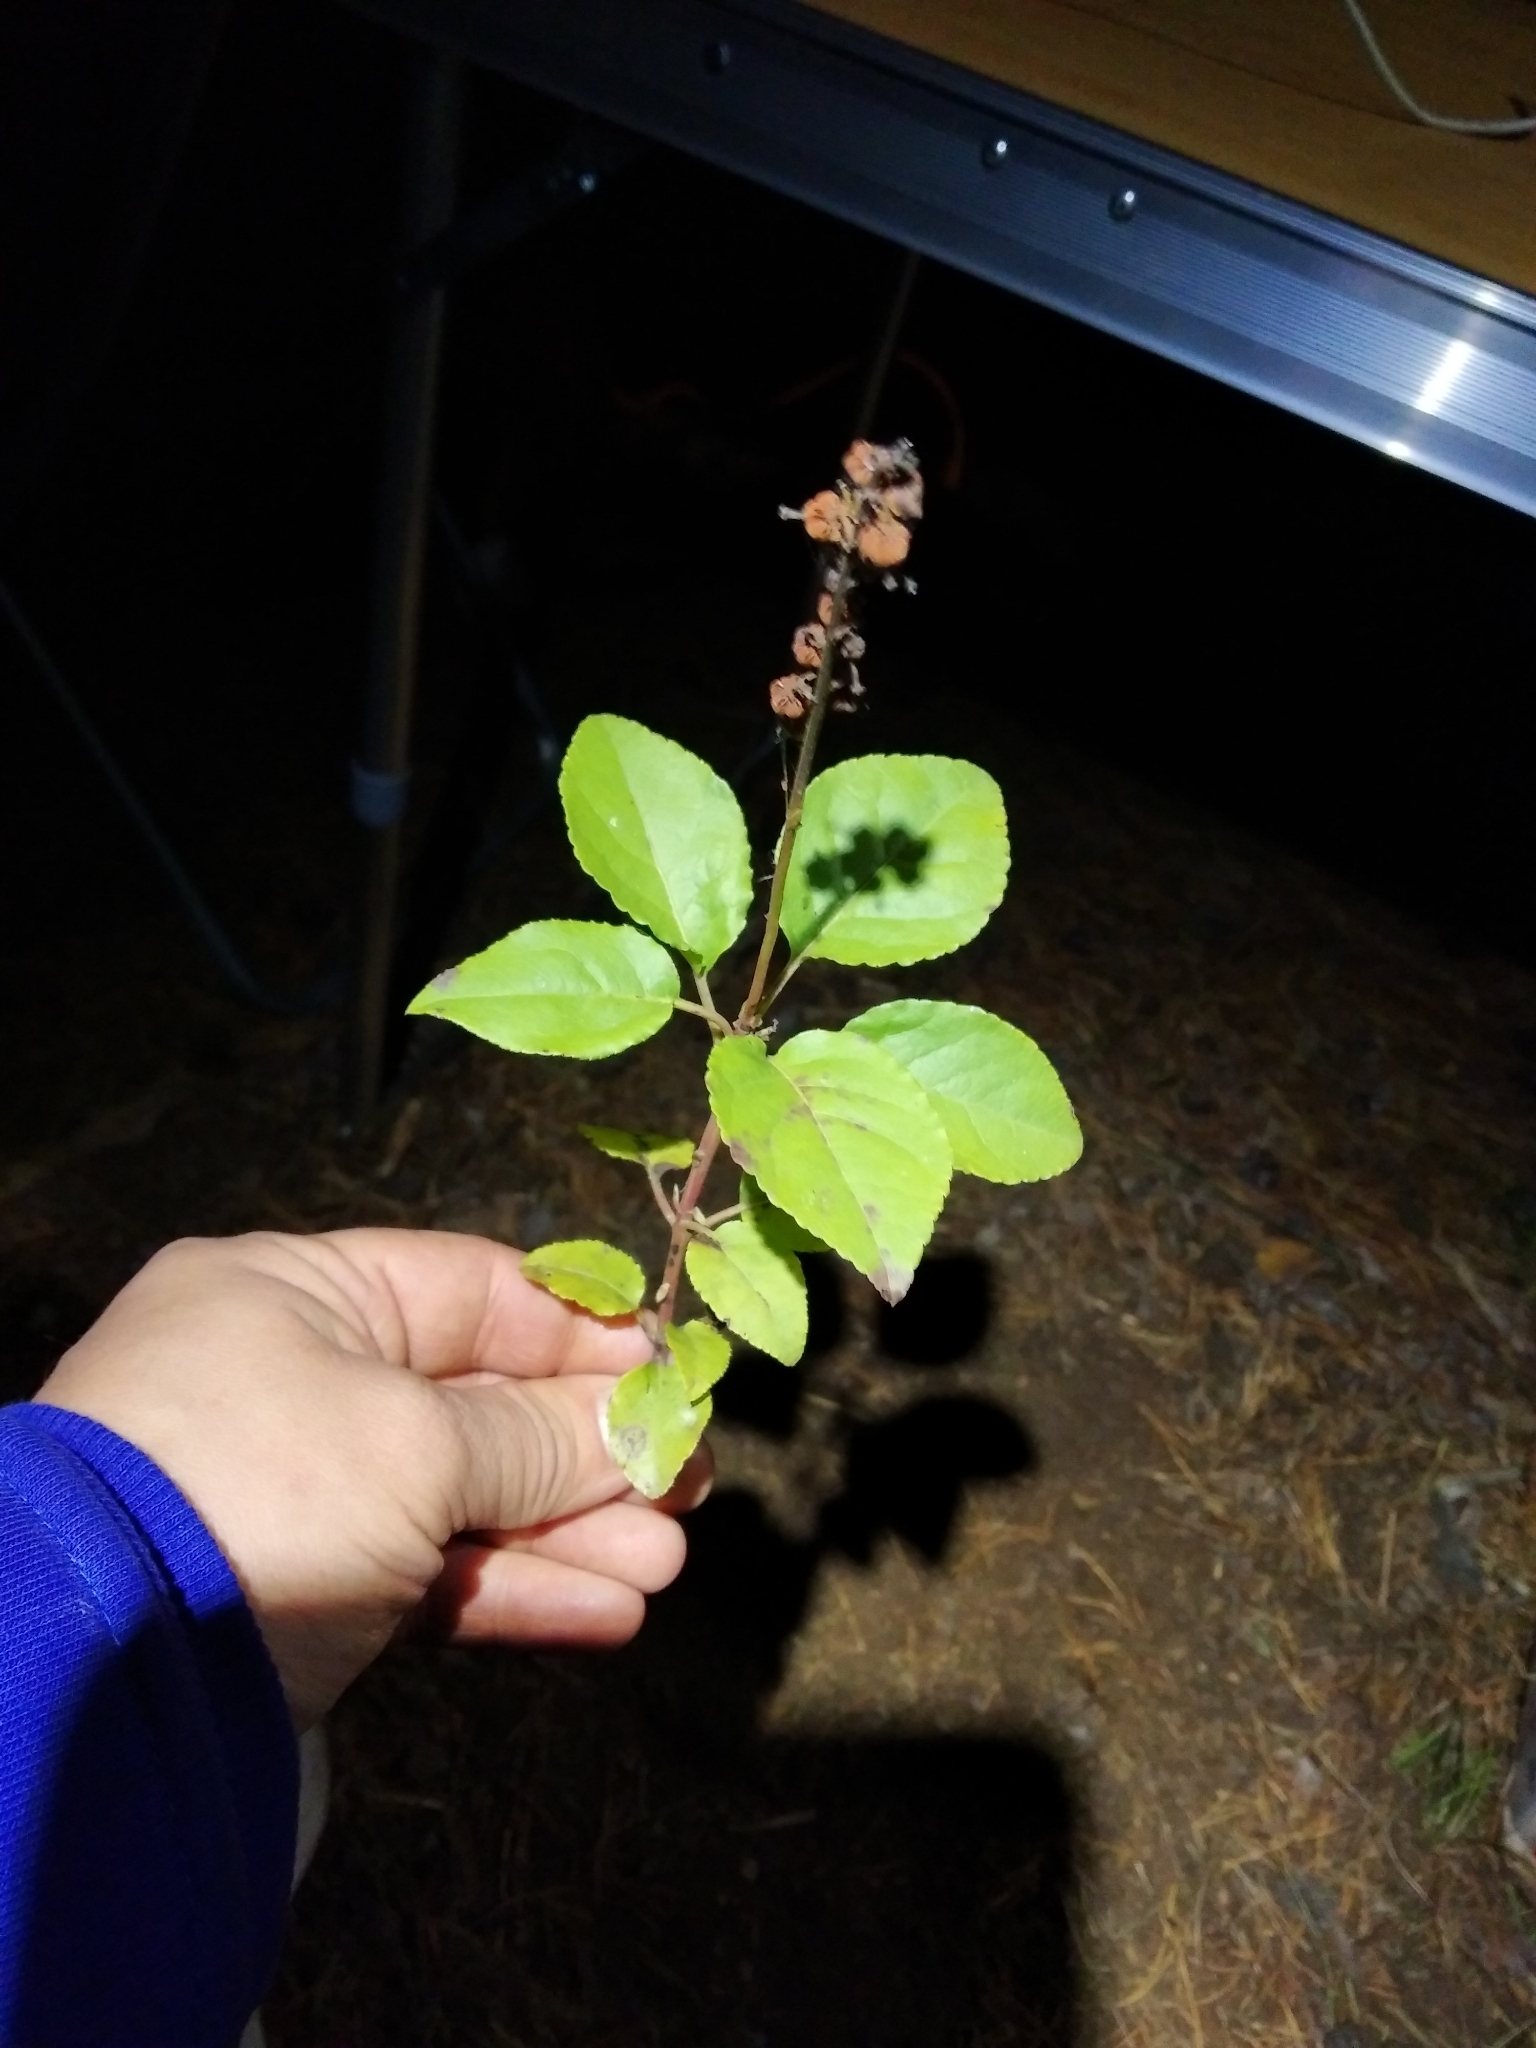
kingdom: Plantae
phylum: Tracheophyta
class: Magnoliopsida
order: Ericales
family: Ericaceae
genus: Orthilia
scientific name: Orthilia secunda
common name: One-sided orthilia
